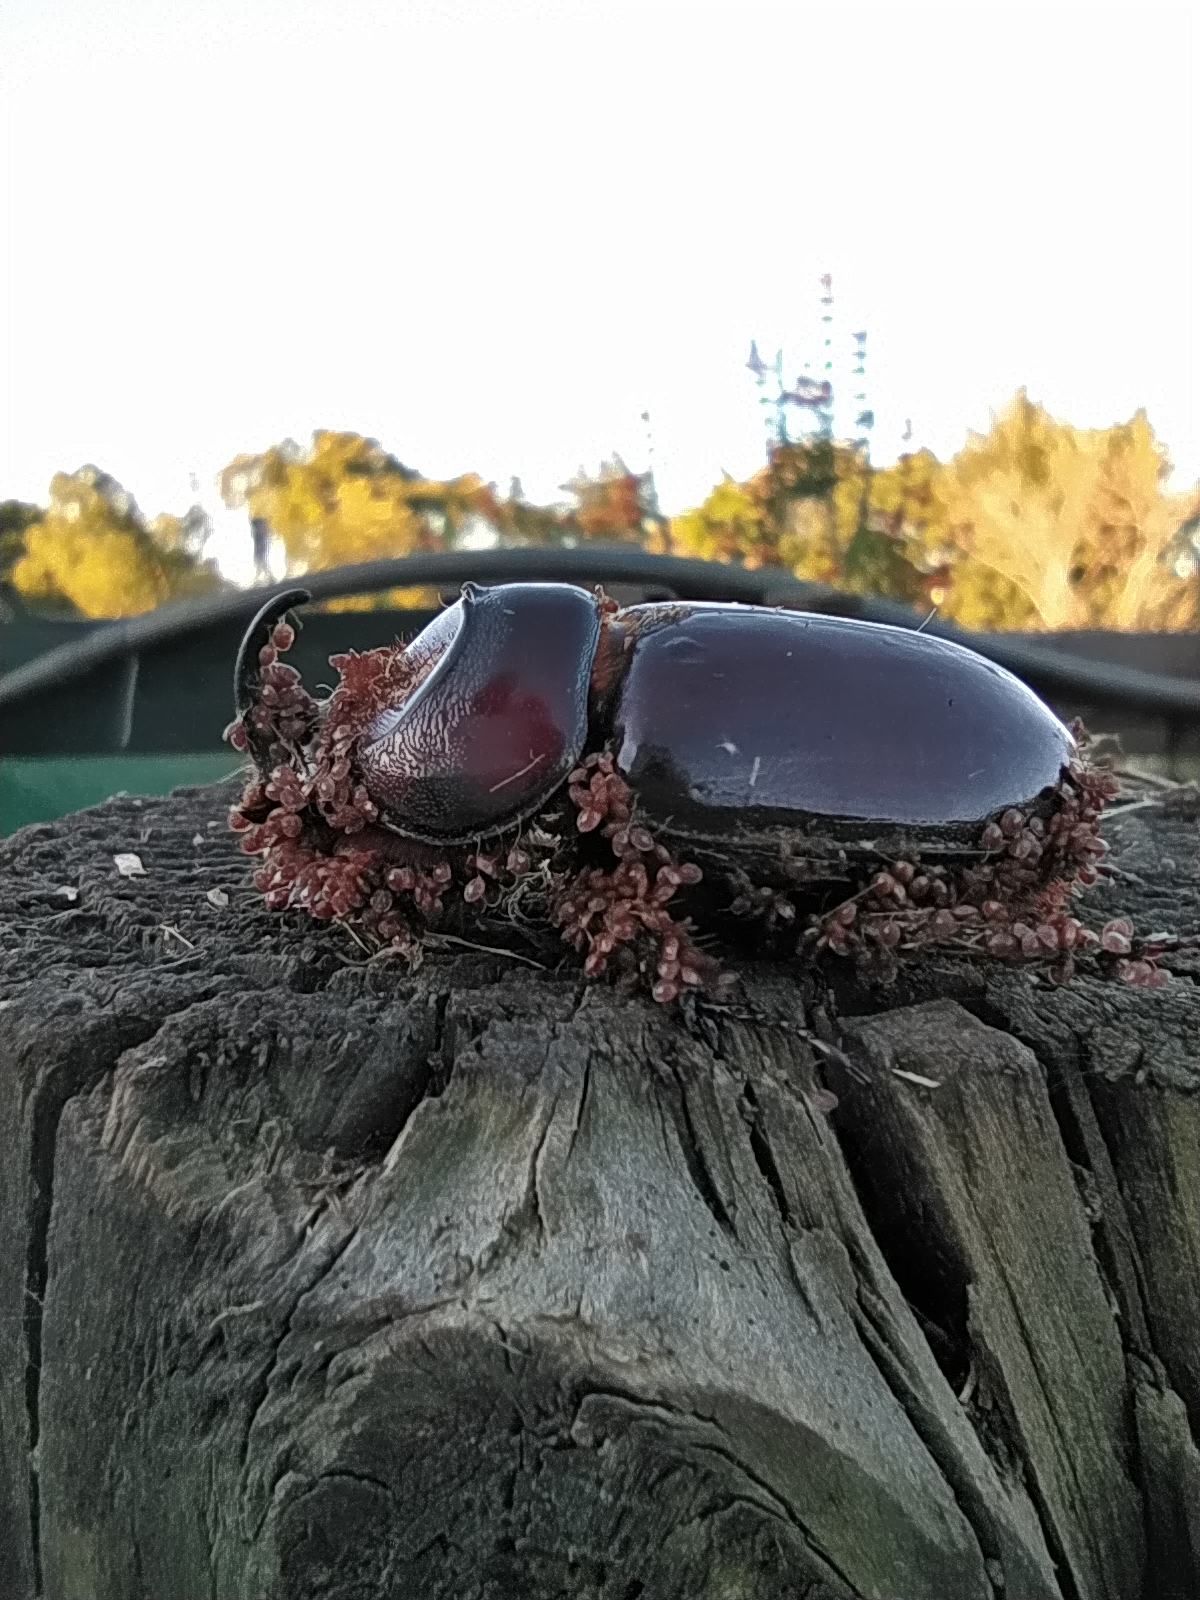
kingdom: Animalia
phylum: Arthropoda
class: Insecta
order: Coleoptera
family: Scarabaeidae
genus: Oryctes
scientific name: Oryctes boas
